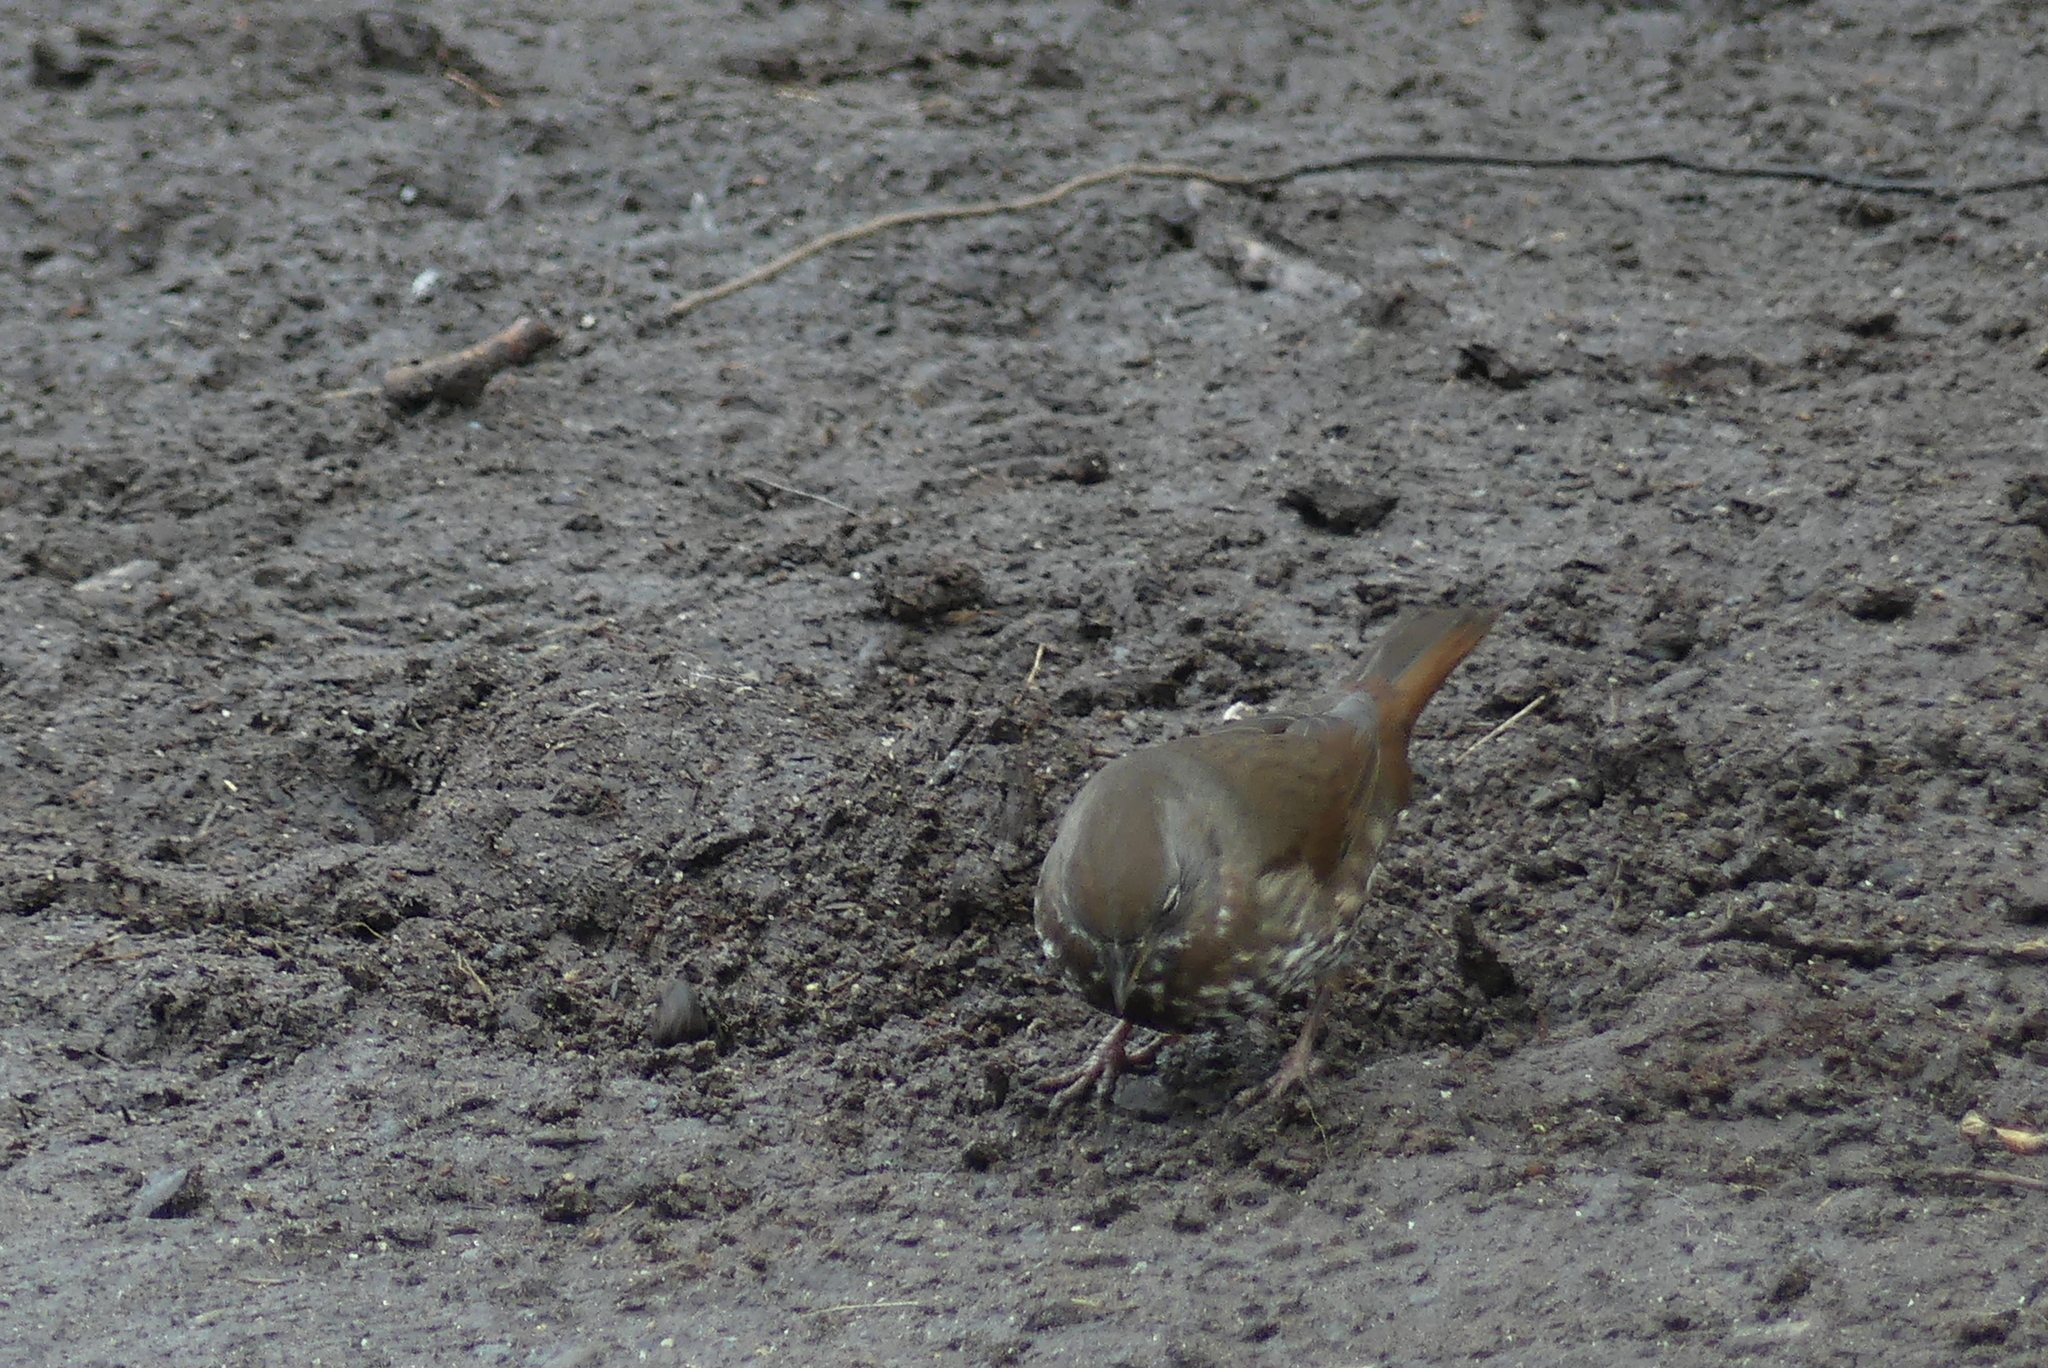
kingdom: Animalia
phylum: Chordata
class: Aves
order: Passeriformes
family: Passerellidae
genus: Passerella
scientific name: Passerella iliaca
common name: Fox sparrow
